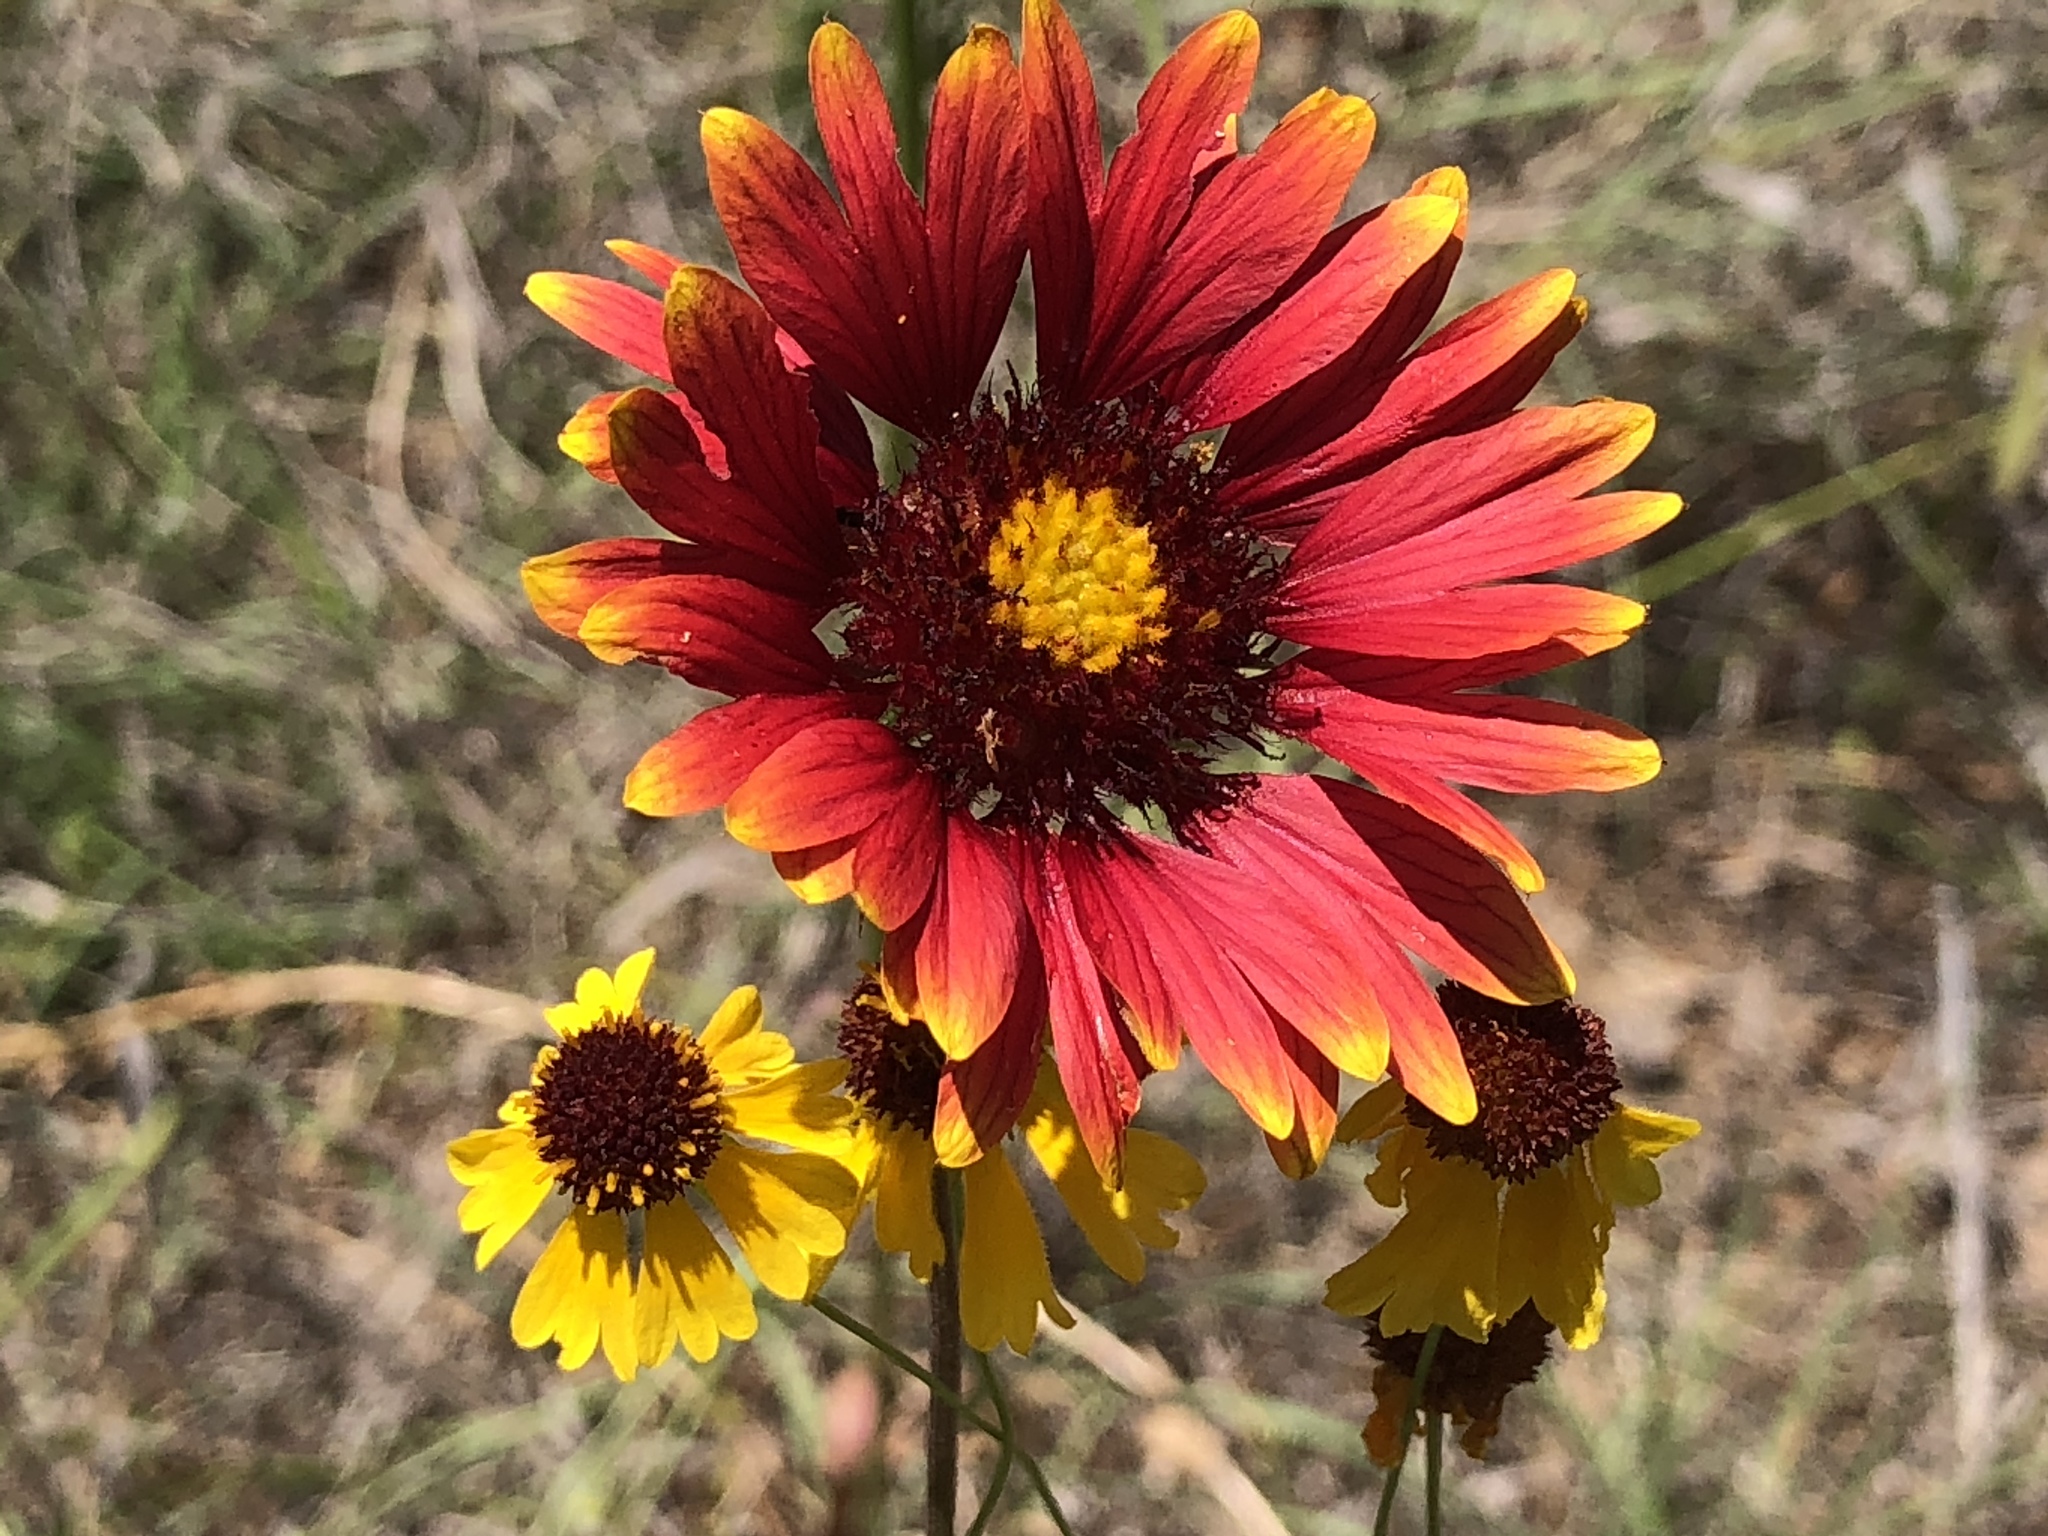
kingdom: Plantae
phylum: Tracheophyta
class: Magnoliopsida
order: Asterales
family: Asteraceae
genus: Gaillardia
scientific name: Gaillardia pulchella
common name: Firewheel
